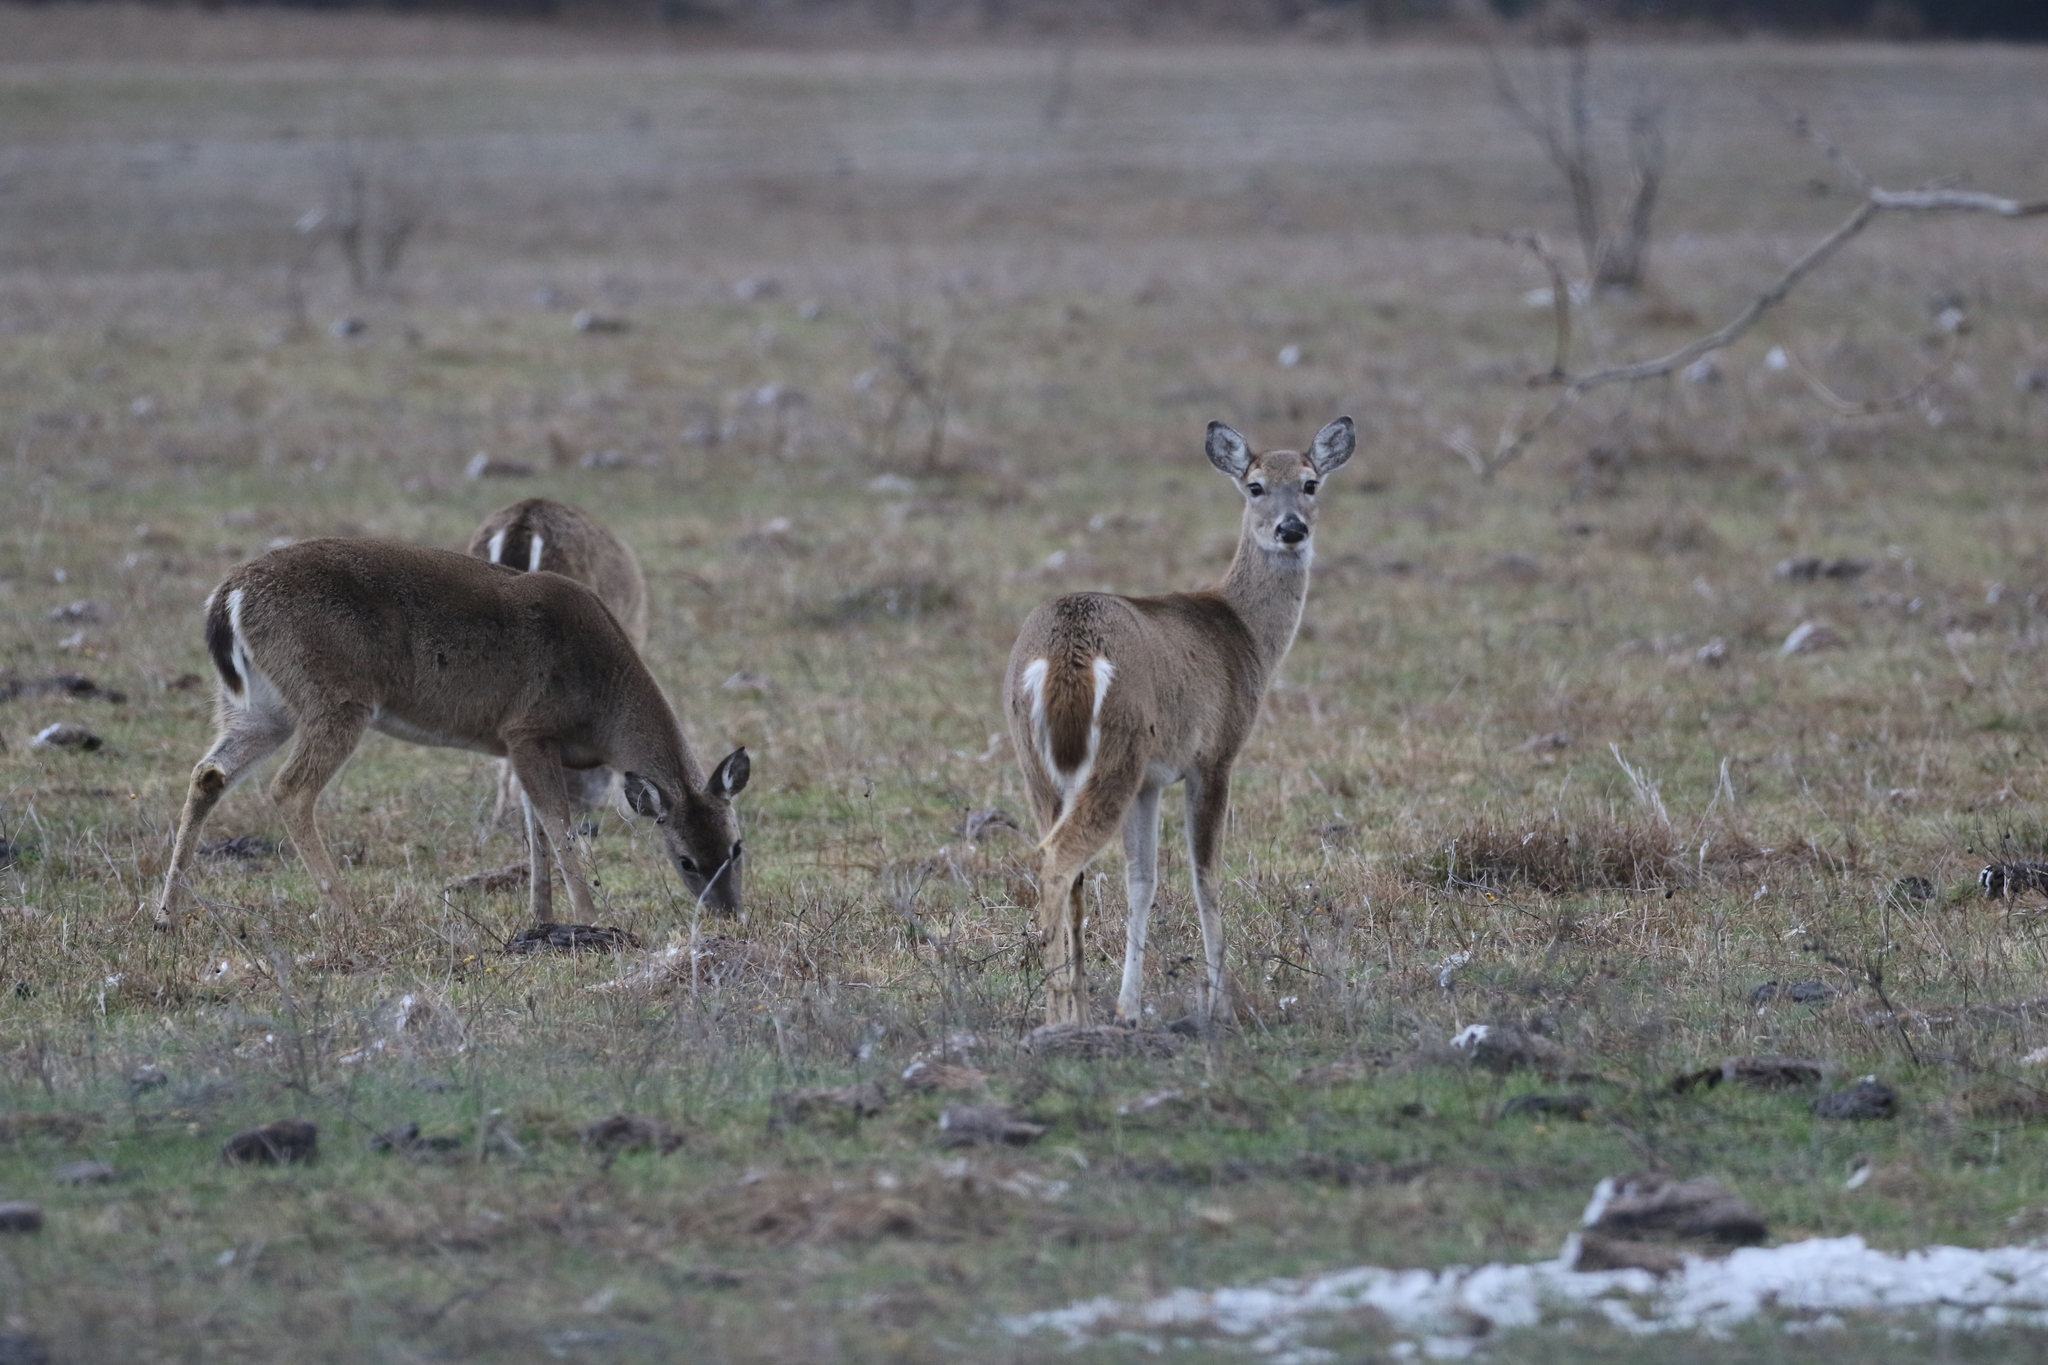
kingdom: Animalia
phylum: Chordata
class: Mammalia
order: Artiodactyla
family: Cervidae
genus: Odocoileus
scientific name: Odocoileus virginianus
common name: White-tailed deer
